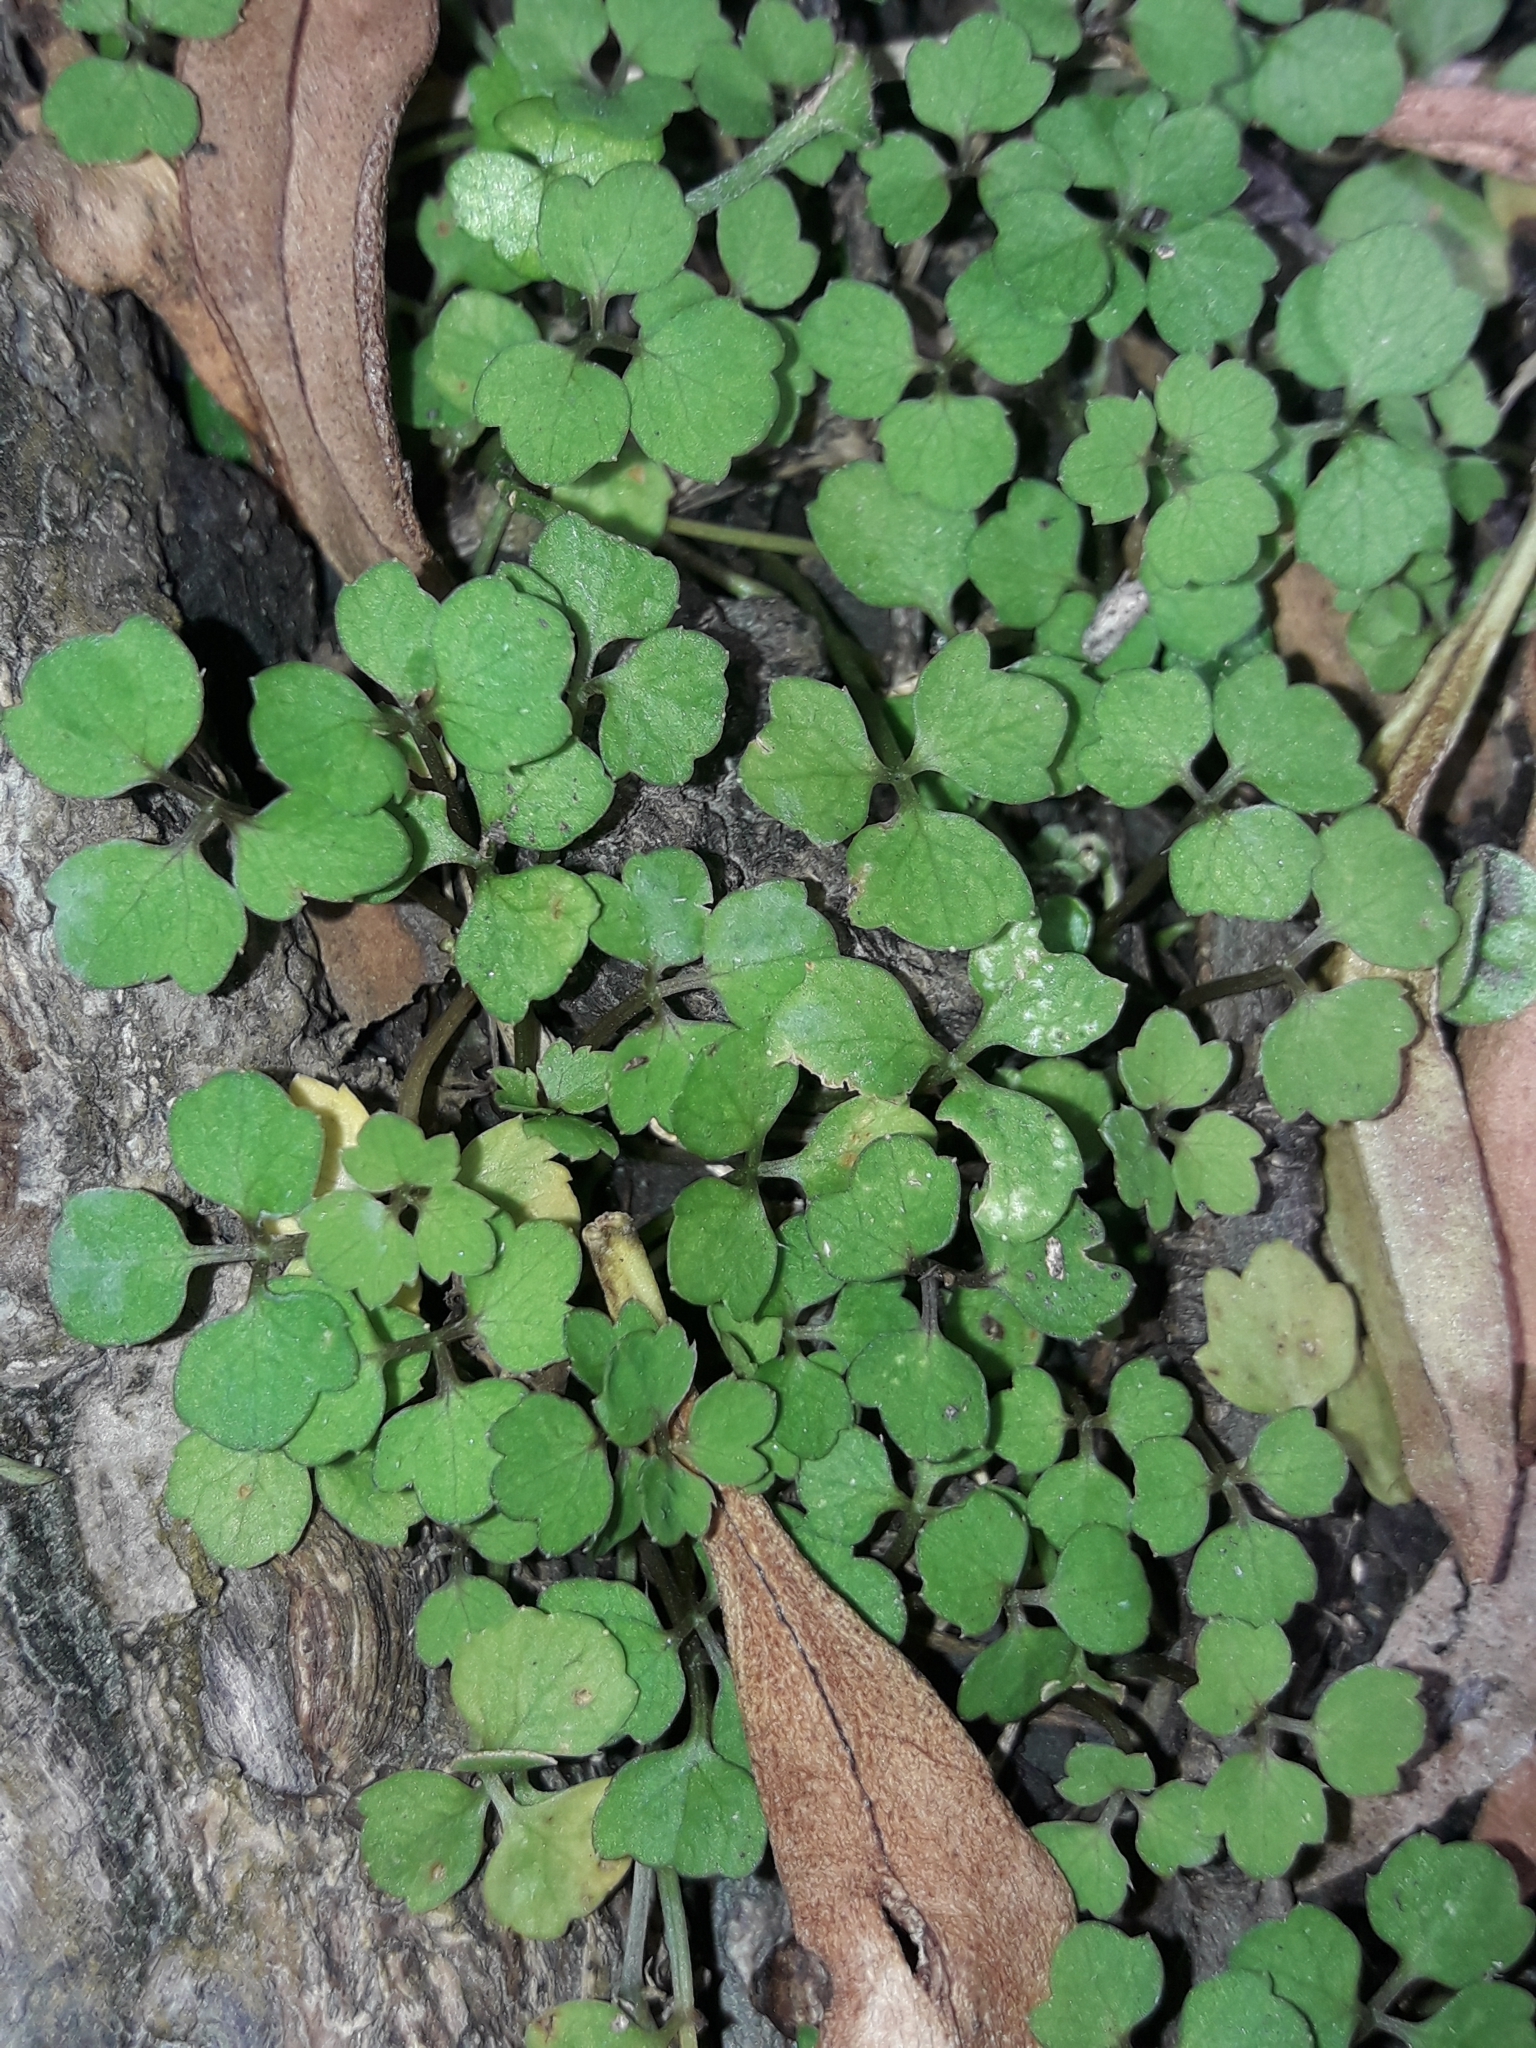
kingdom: Plantae
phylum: Tracheophyta
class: Magnoliopsida
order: Apiales
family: Apiaceae
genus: Azorella
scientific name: Azorella hookeri
